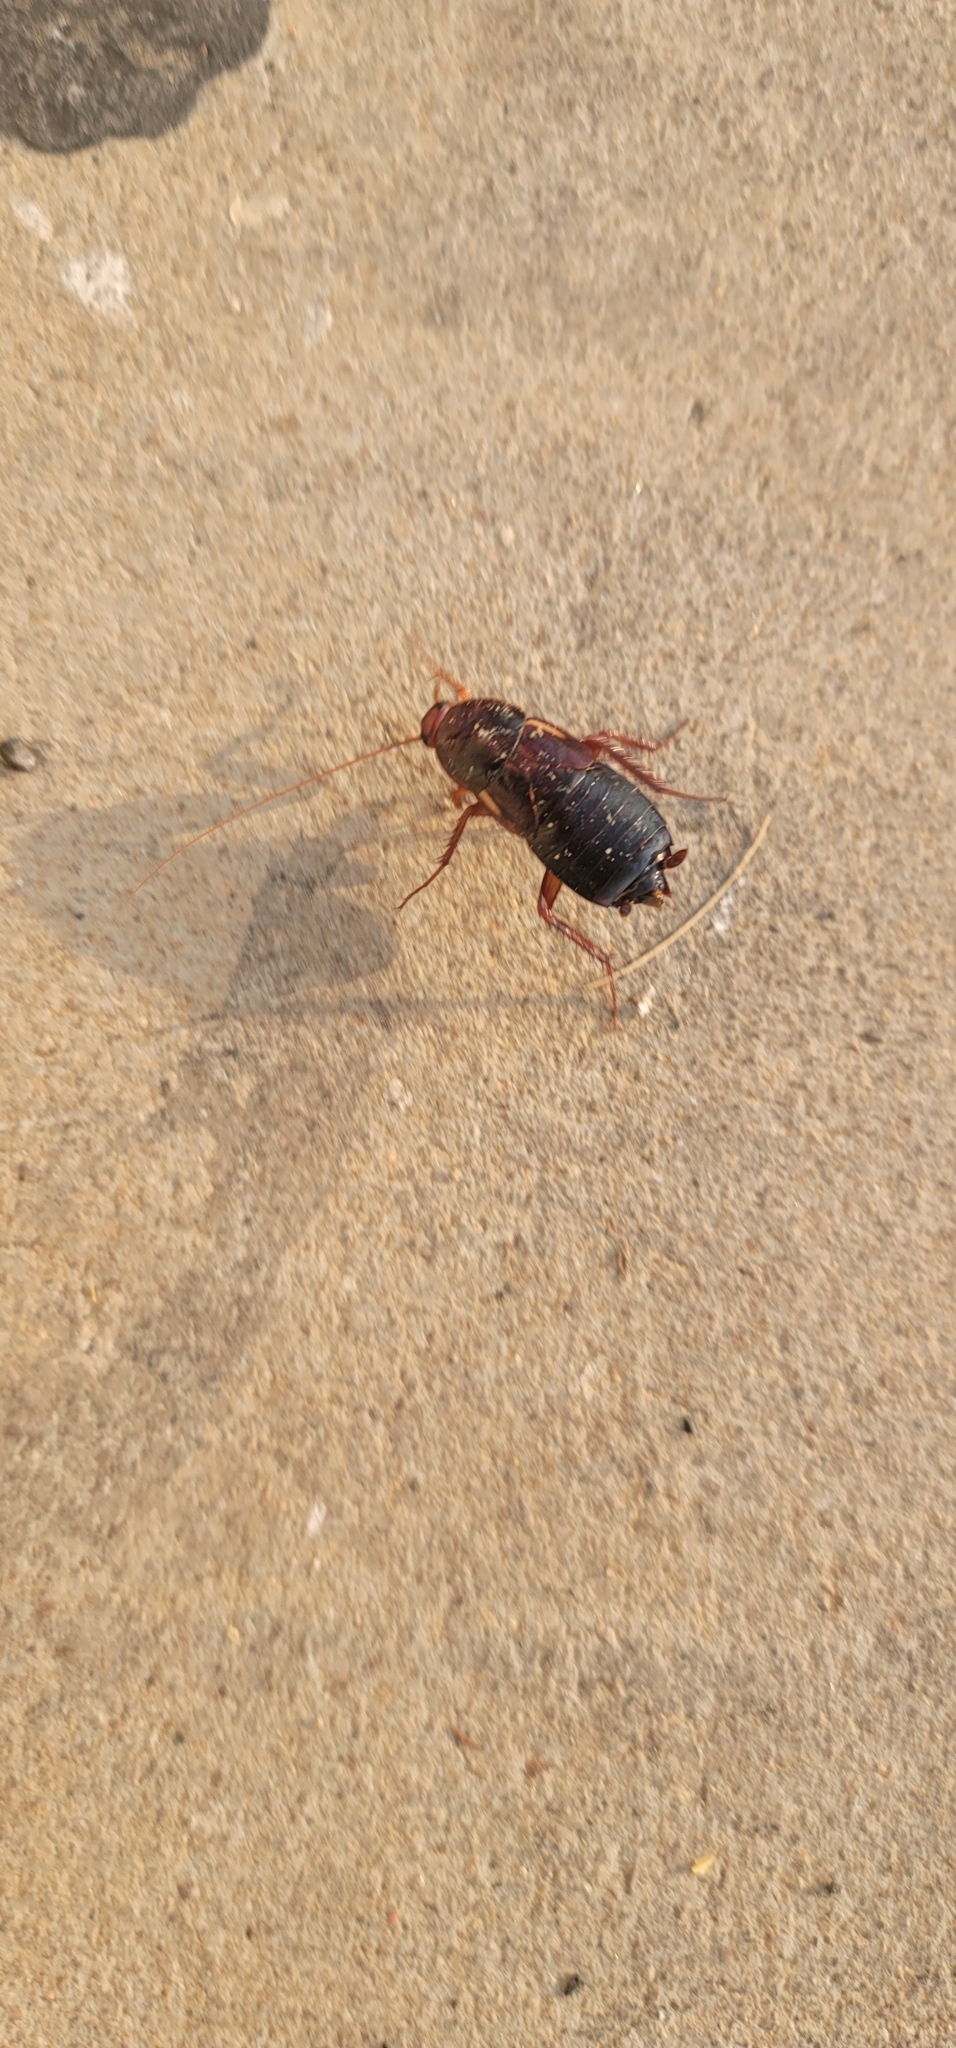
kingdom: Animalia
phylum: Arthropoda
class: Insecta
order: Blattodea
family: Blattidae
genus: Periplaneta
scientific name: Periplaneta lateralis
